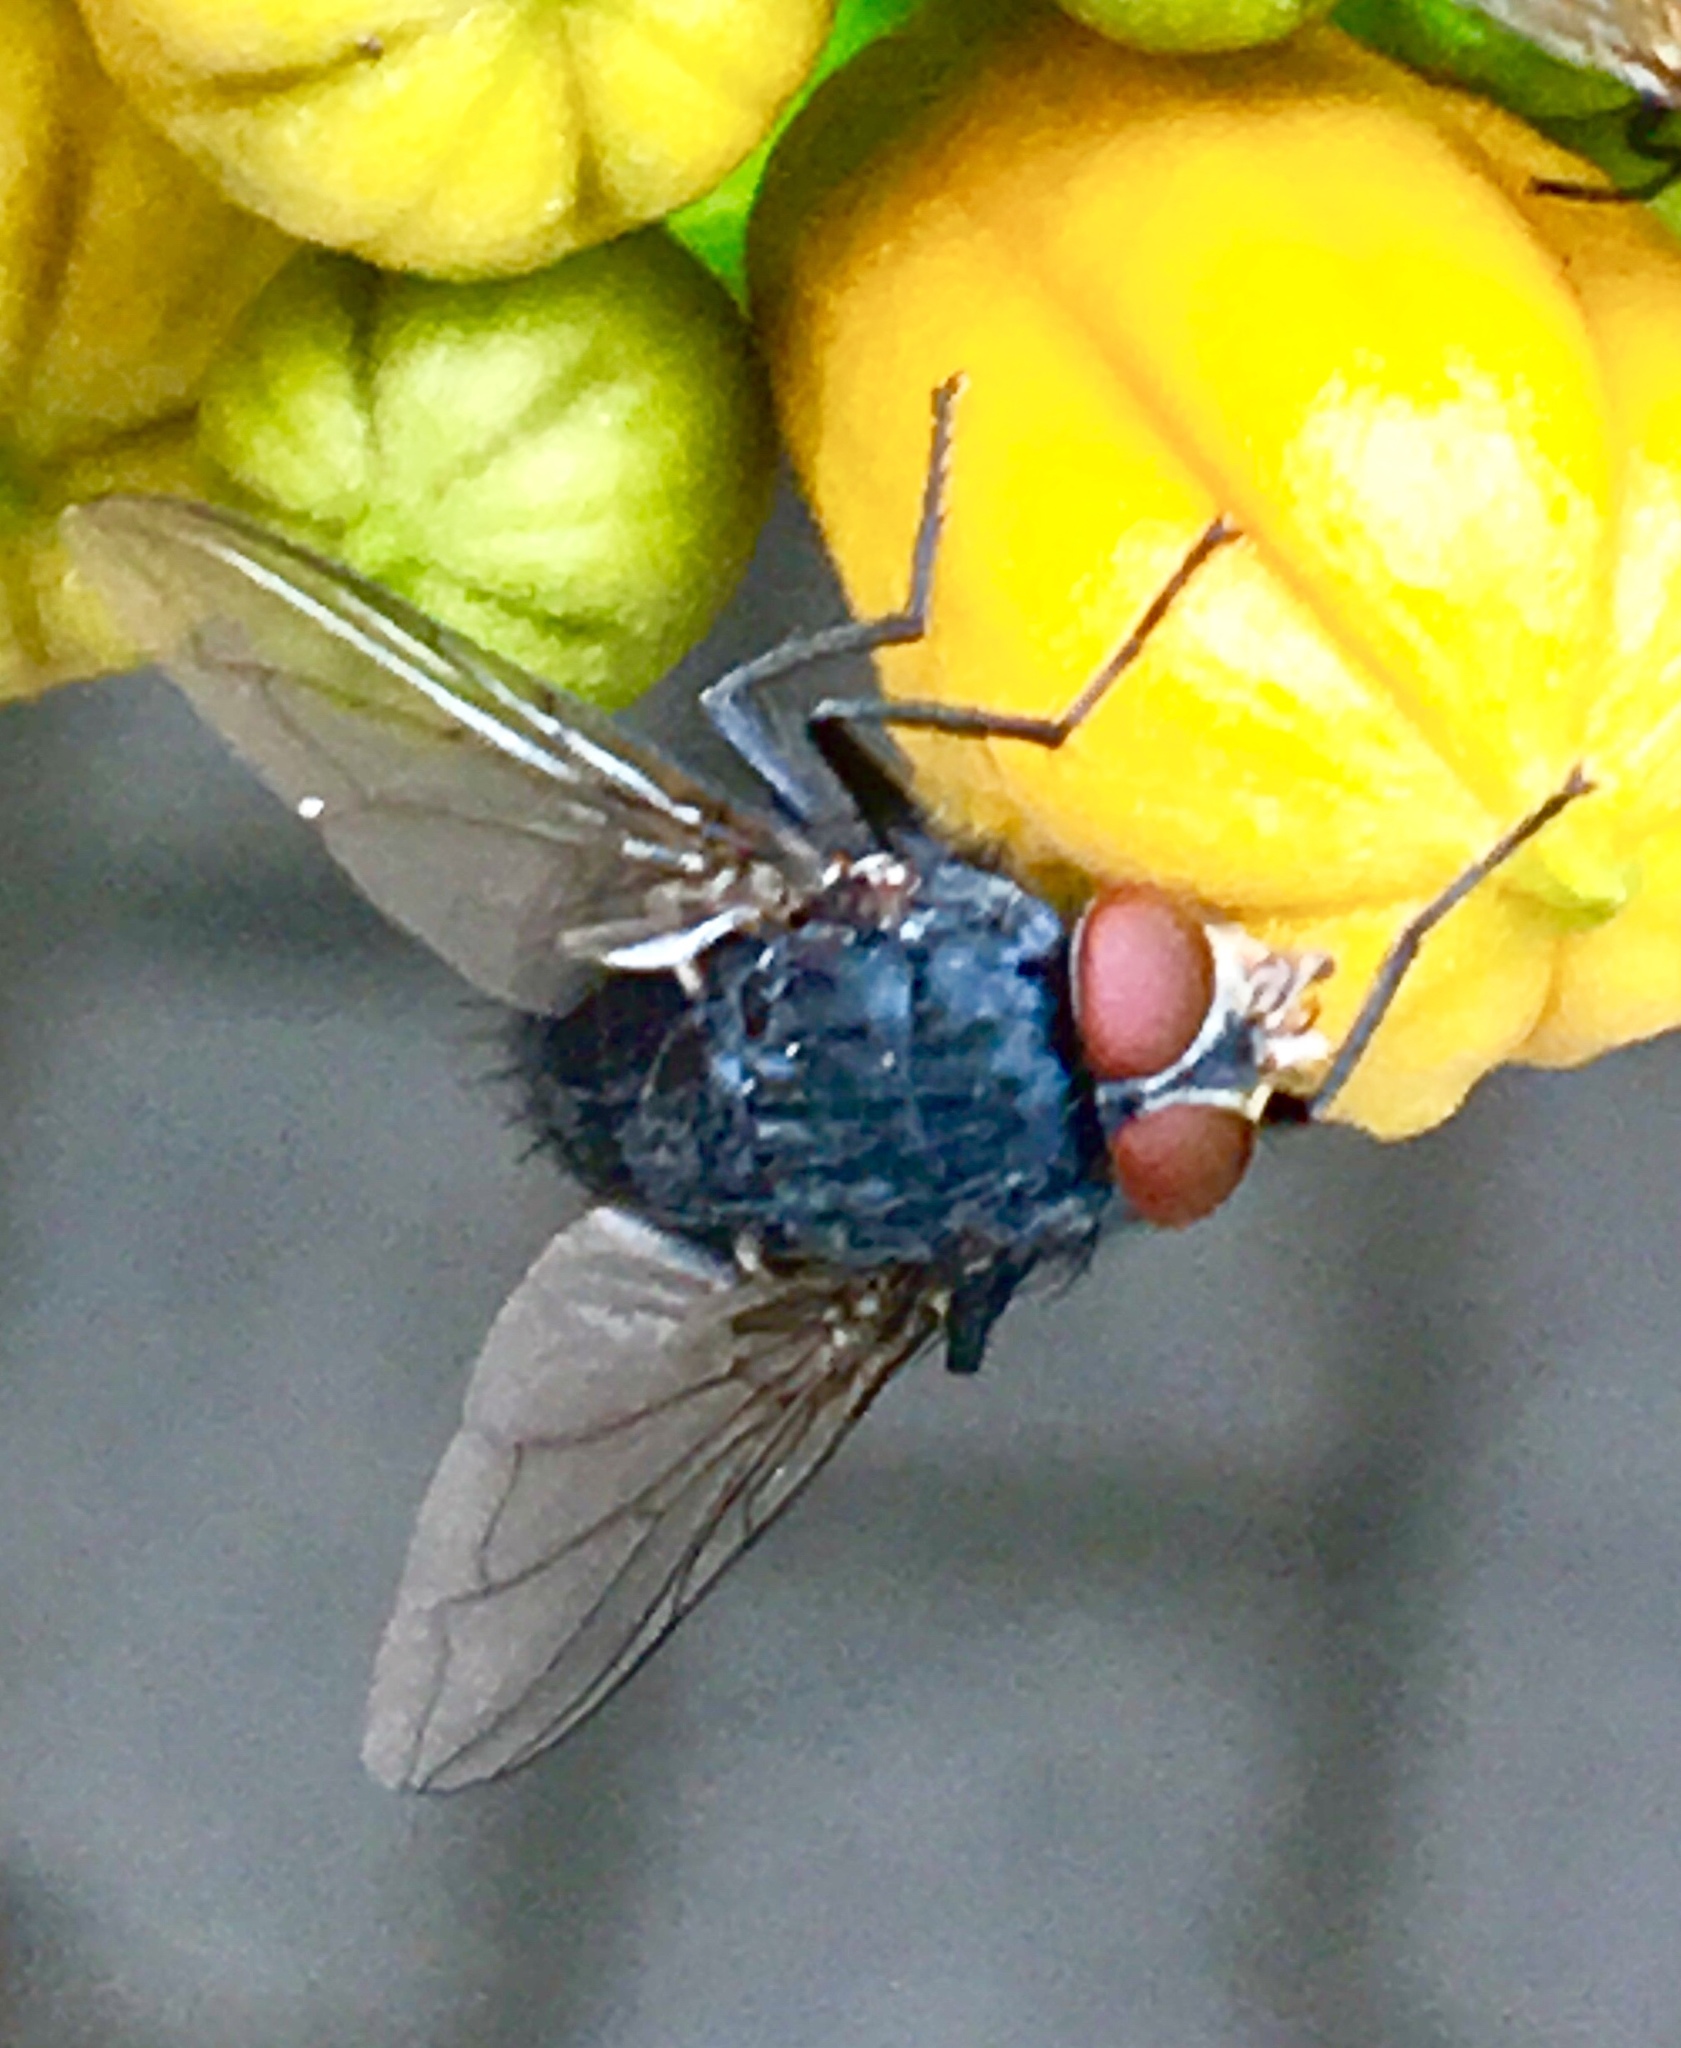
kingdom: Animalia
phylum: Arthropoda
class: Insecta
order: Diptera
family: Calliphoridae
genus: Calliphora
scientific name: Calliphora vicina
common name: Common blow flie
